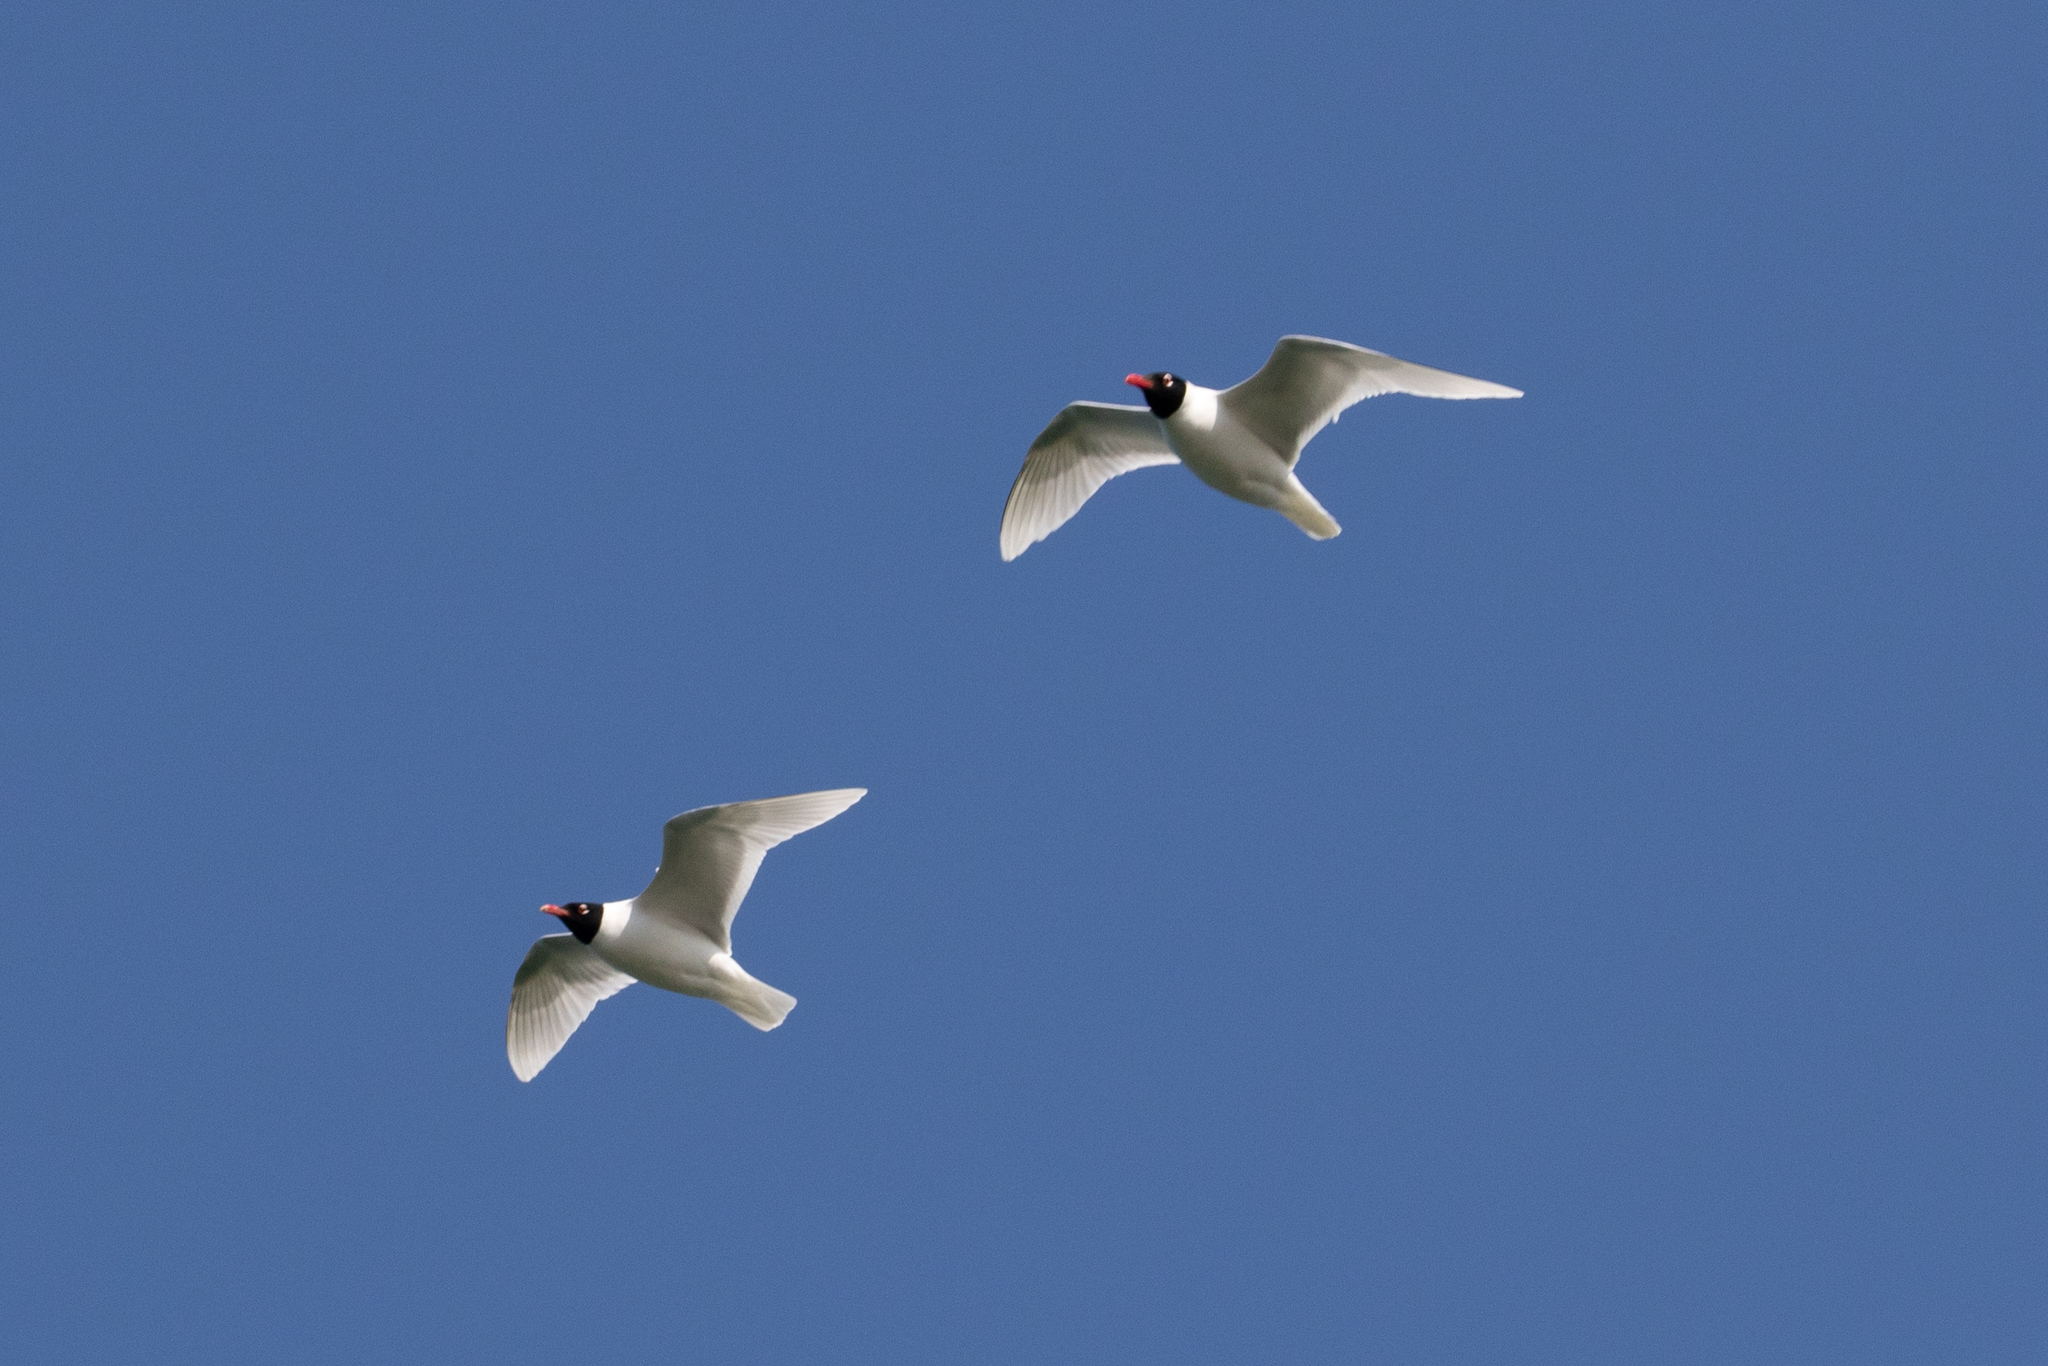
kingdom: Animalia
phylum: Chordata
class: Aves
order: Charadriiformes
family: Laridae
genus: Ichthyaetus
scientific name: Ichthyaetus melanocephalus
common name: Mediterranean gull
